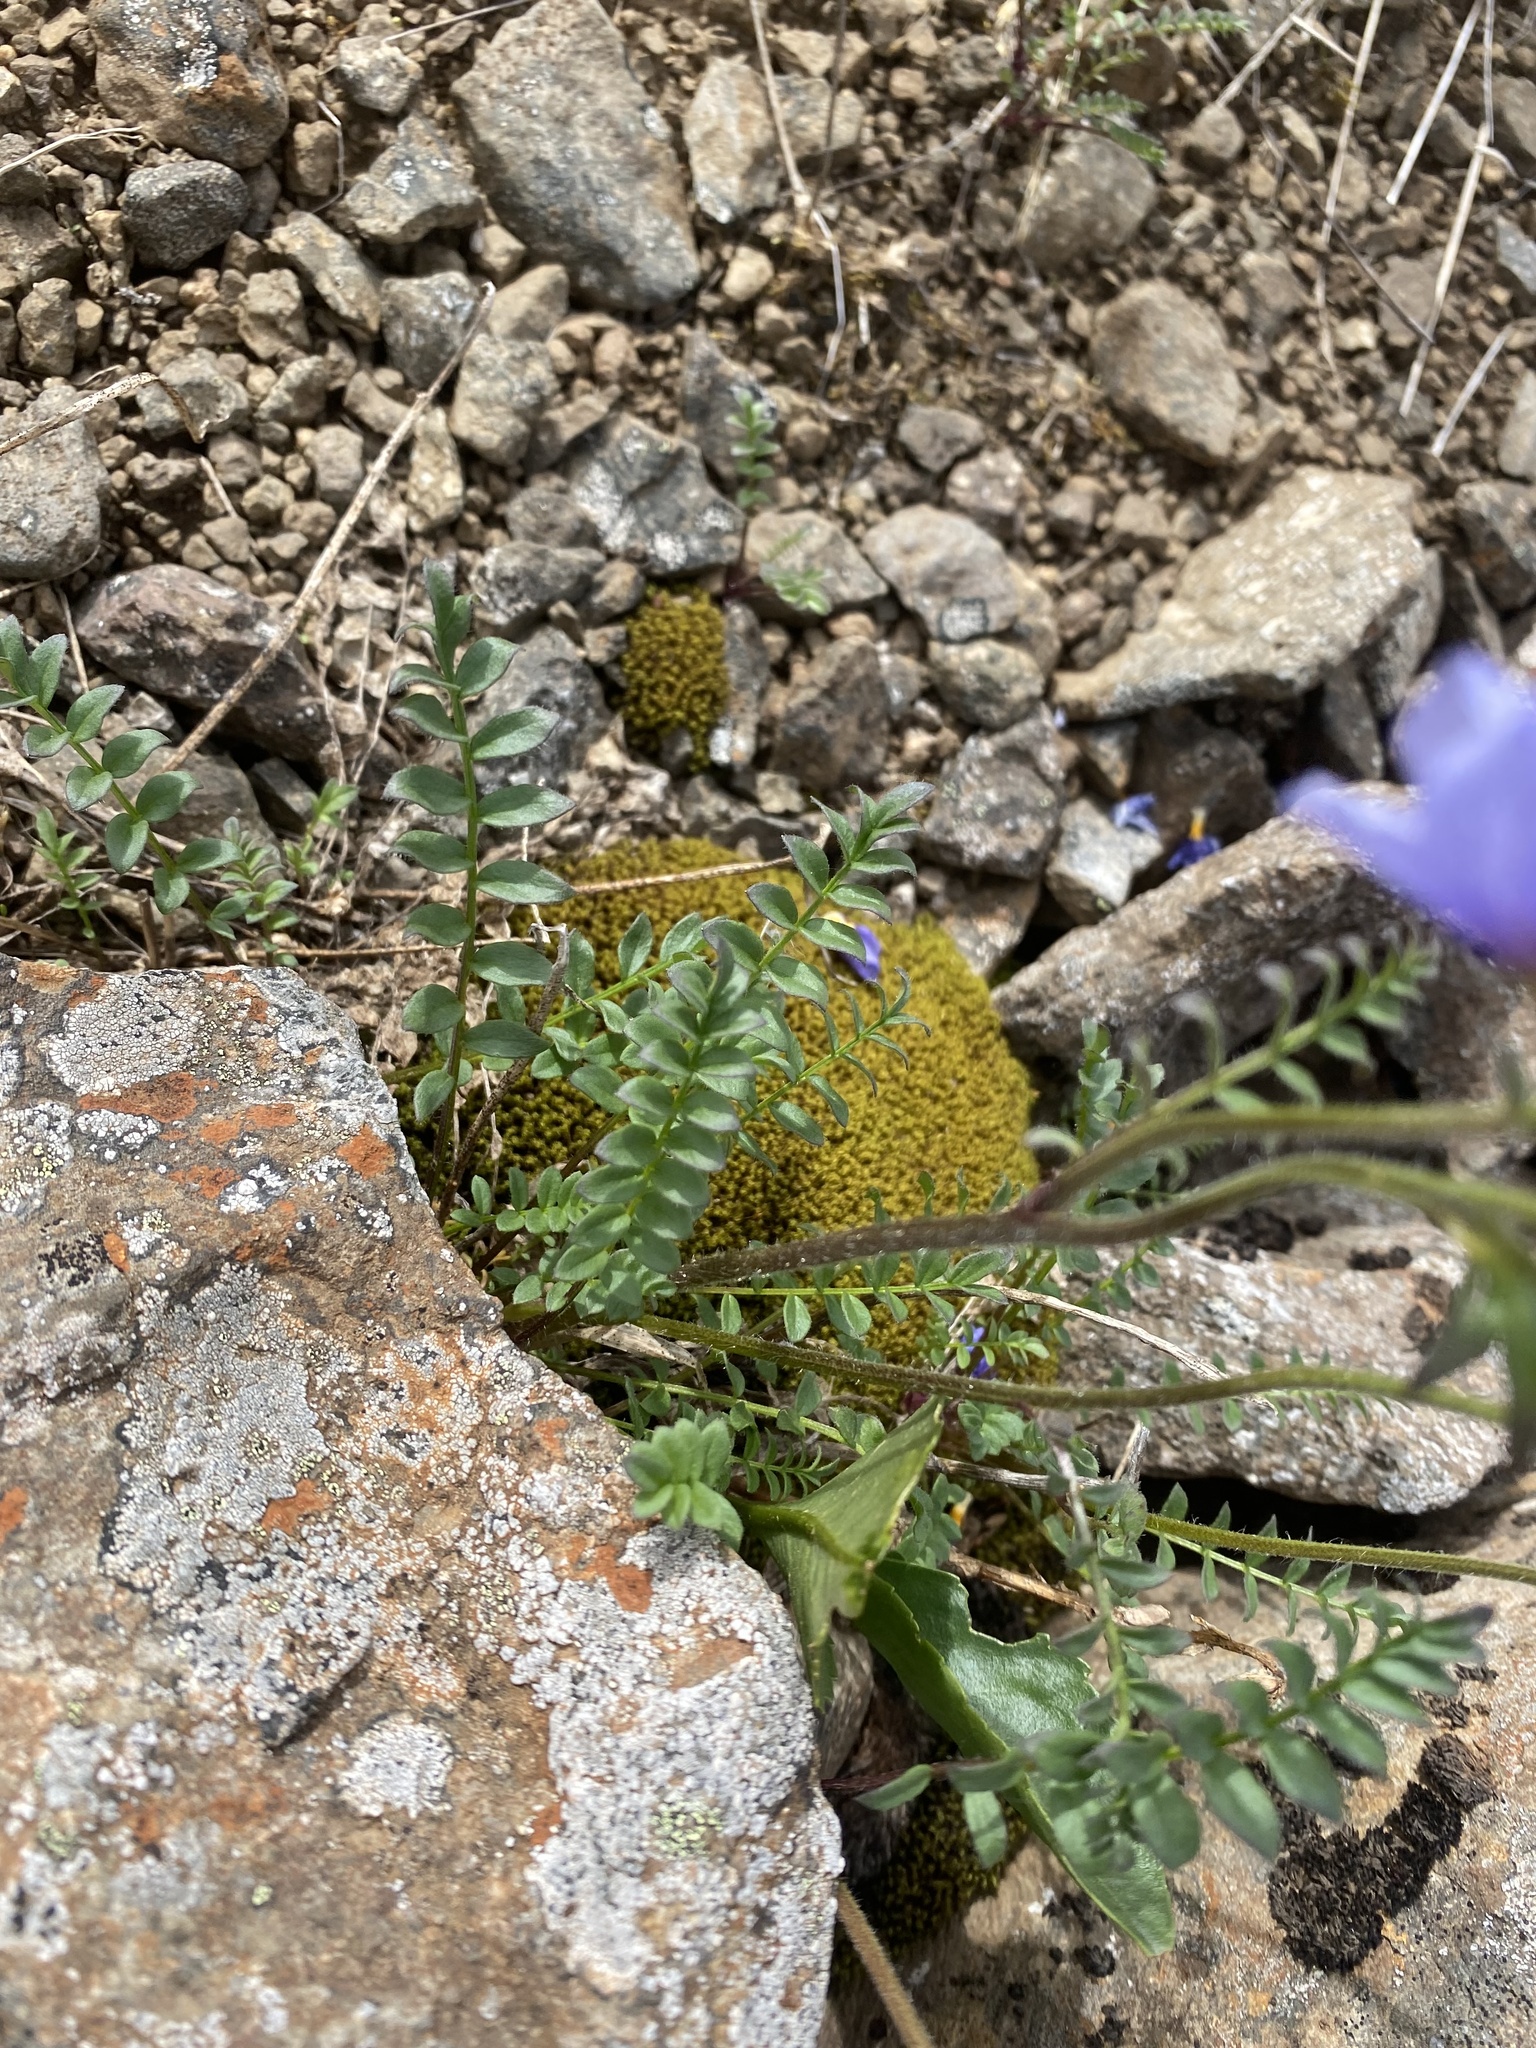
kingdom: Plantae
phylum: Tracheophyta
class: Magnoliopsida
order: Ericales
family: Polemoniaceae
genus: Polemonium
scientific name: Polemonium boreale
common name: Boreal jacob's-ladder
